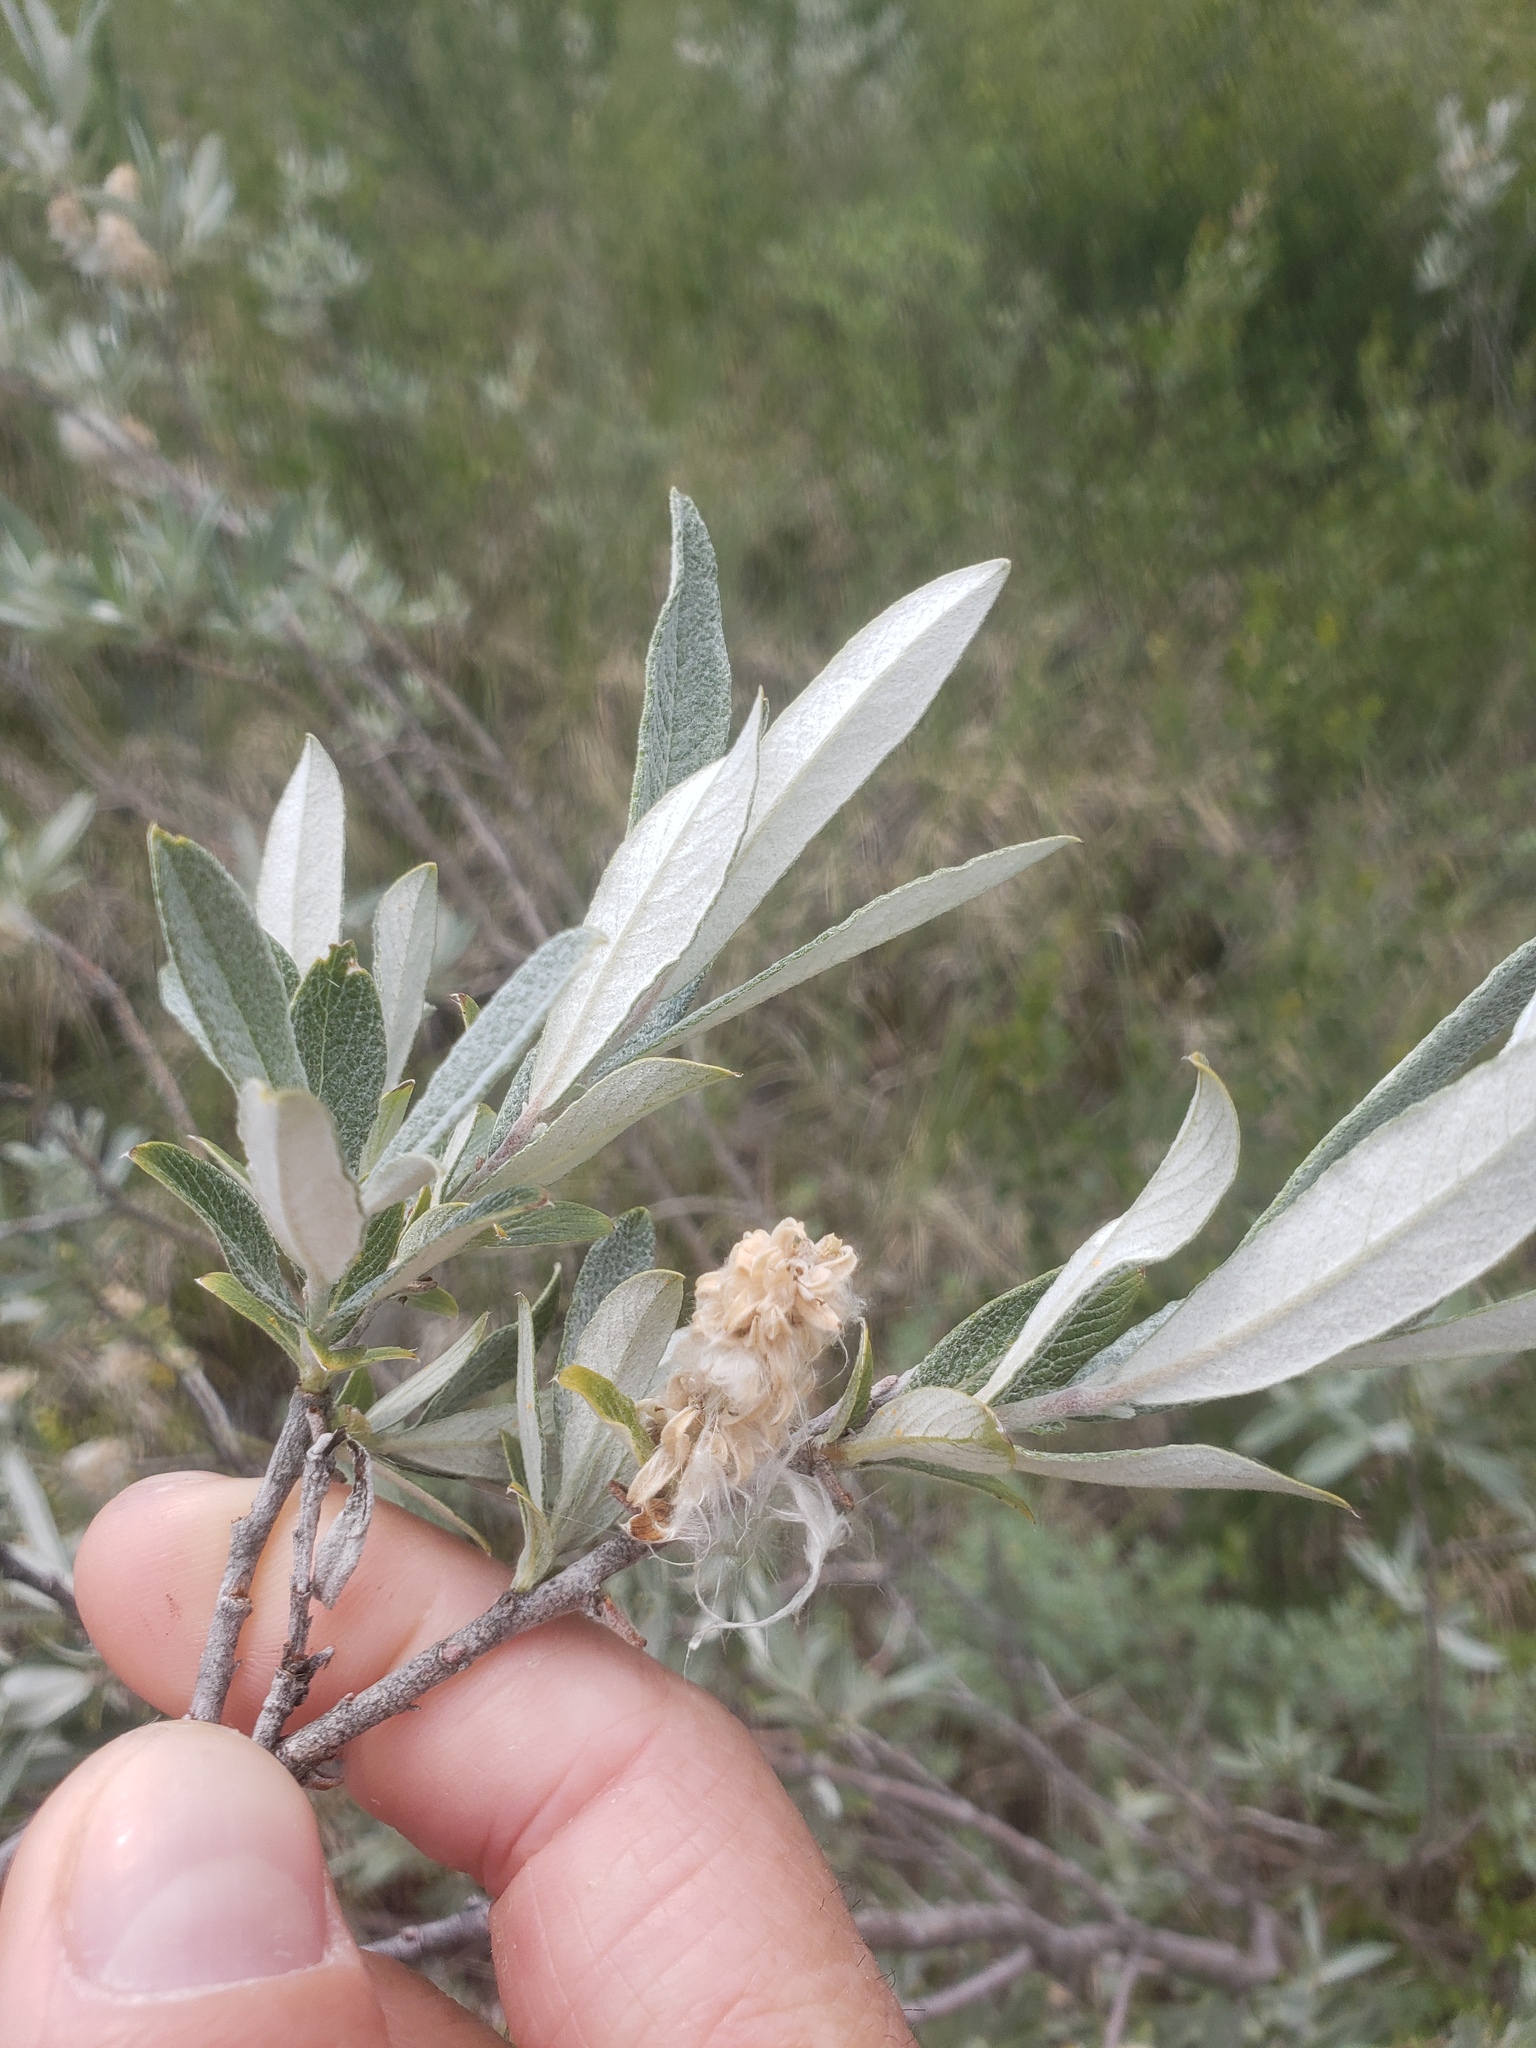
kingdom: Plantae
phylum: Tracheophyta
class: Magnoliopsida
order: Malpighiales
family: Salicaceae
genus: Salix
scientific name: Salix candida
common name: Hoary willow
